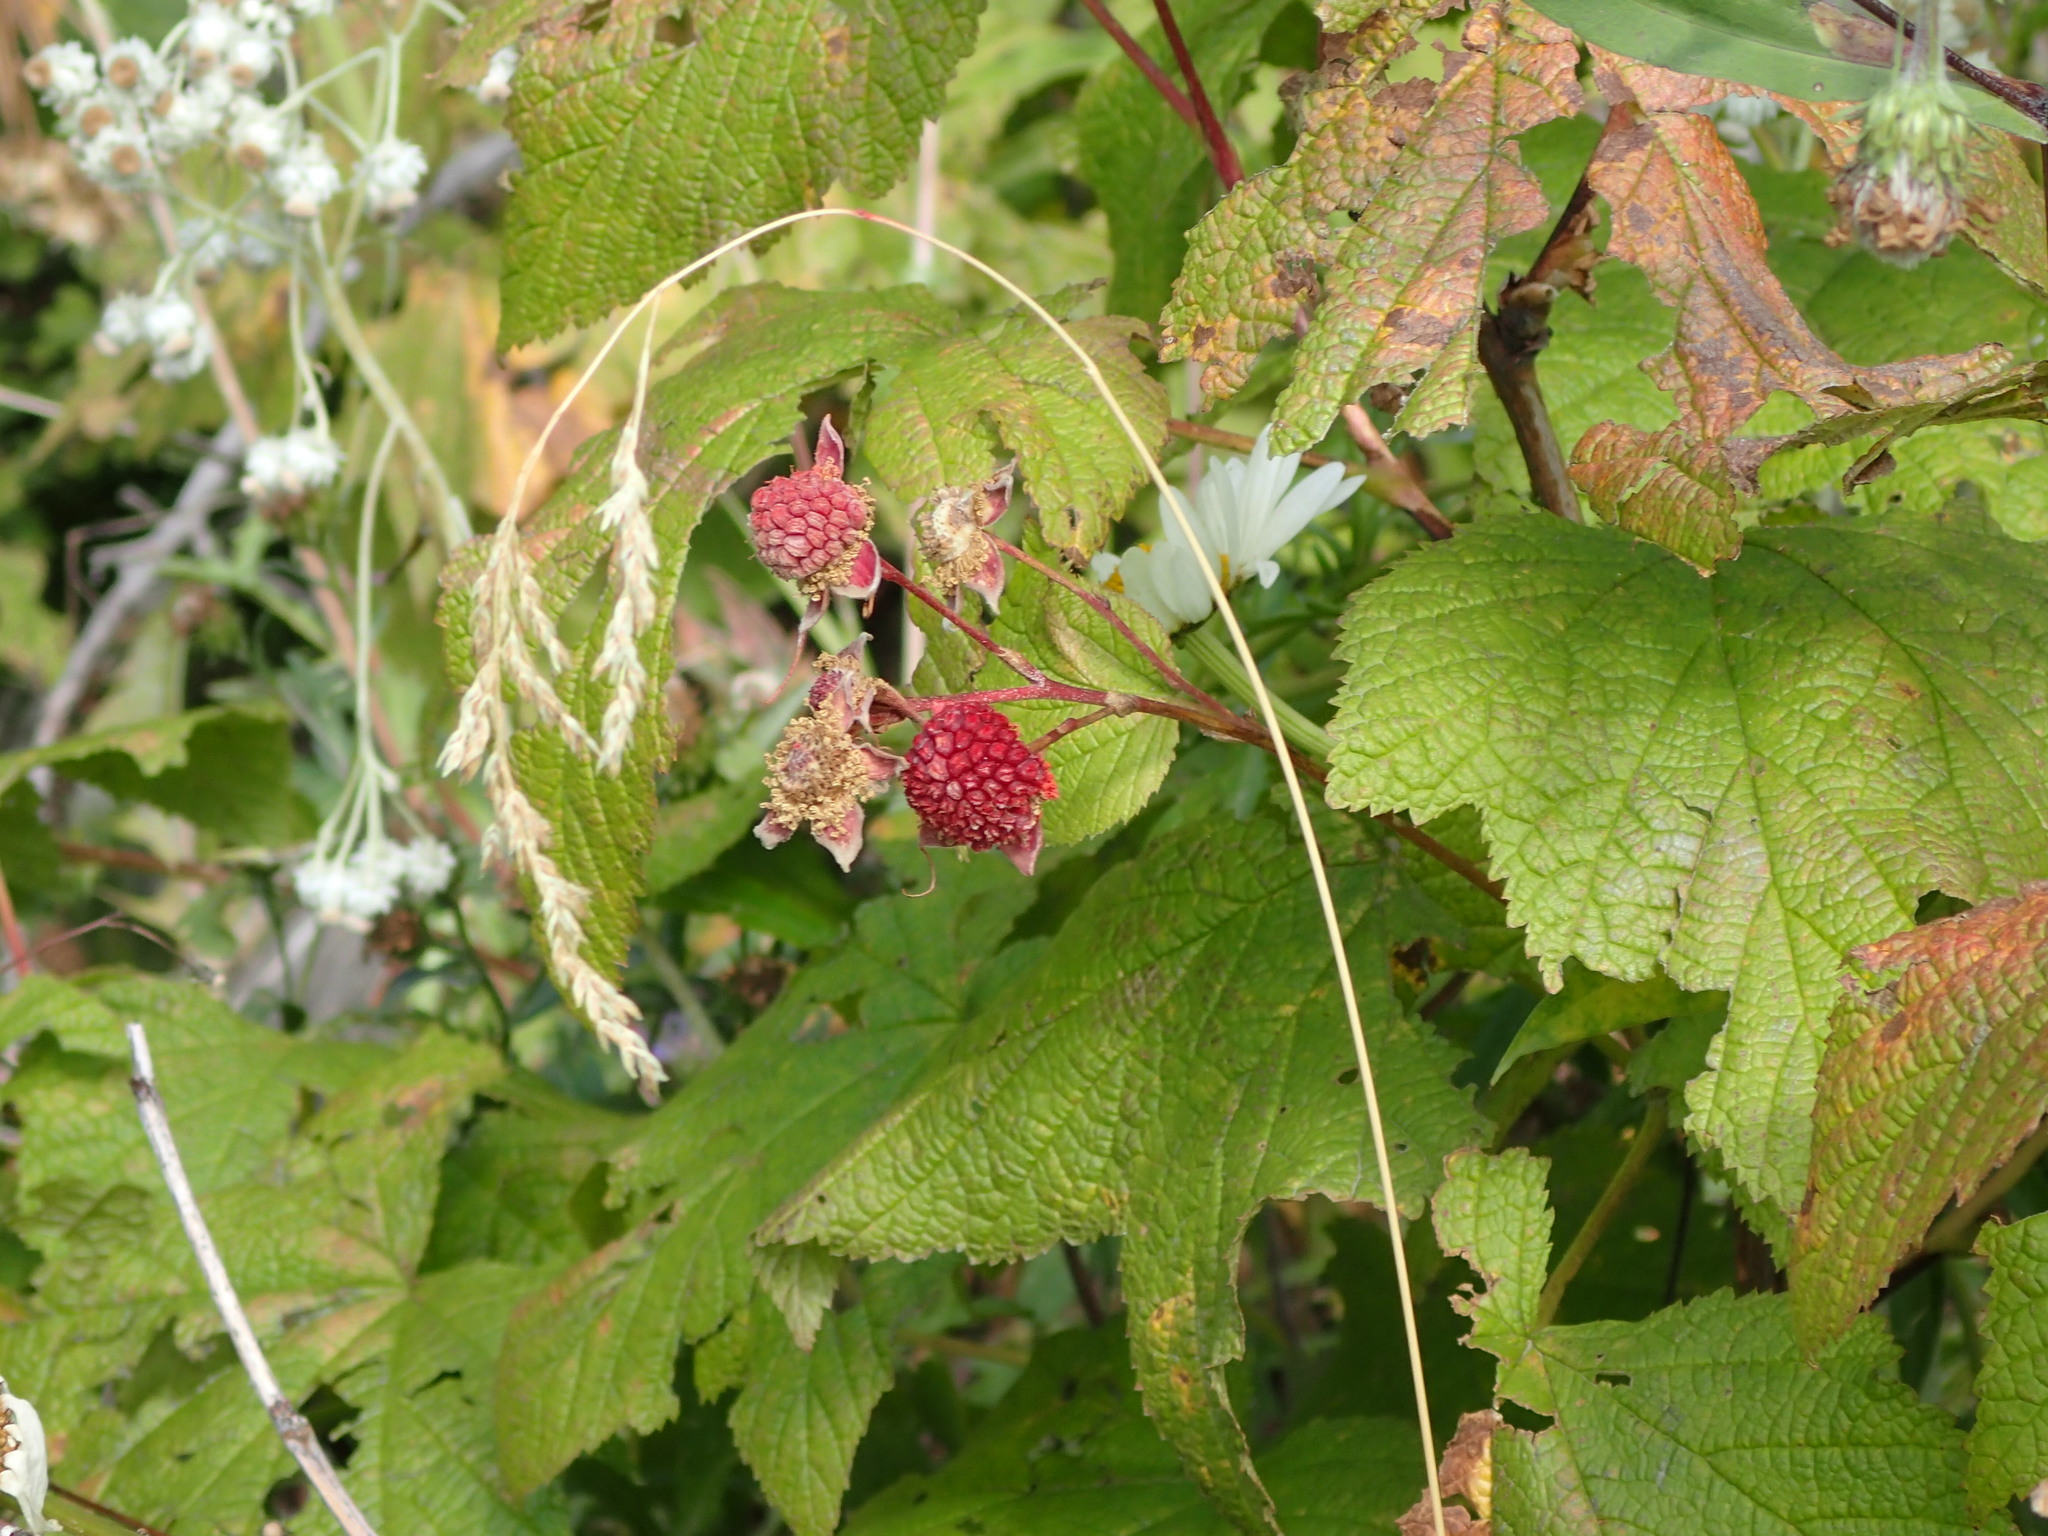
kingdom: Plantae
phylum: Tracheophyta
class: Magnoliopsida
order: Rosales
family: Rosaceae
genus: Rubus
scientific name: Rubus parviflorus
